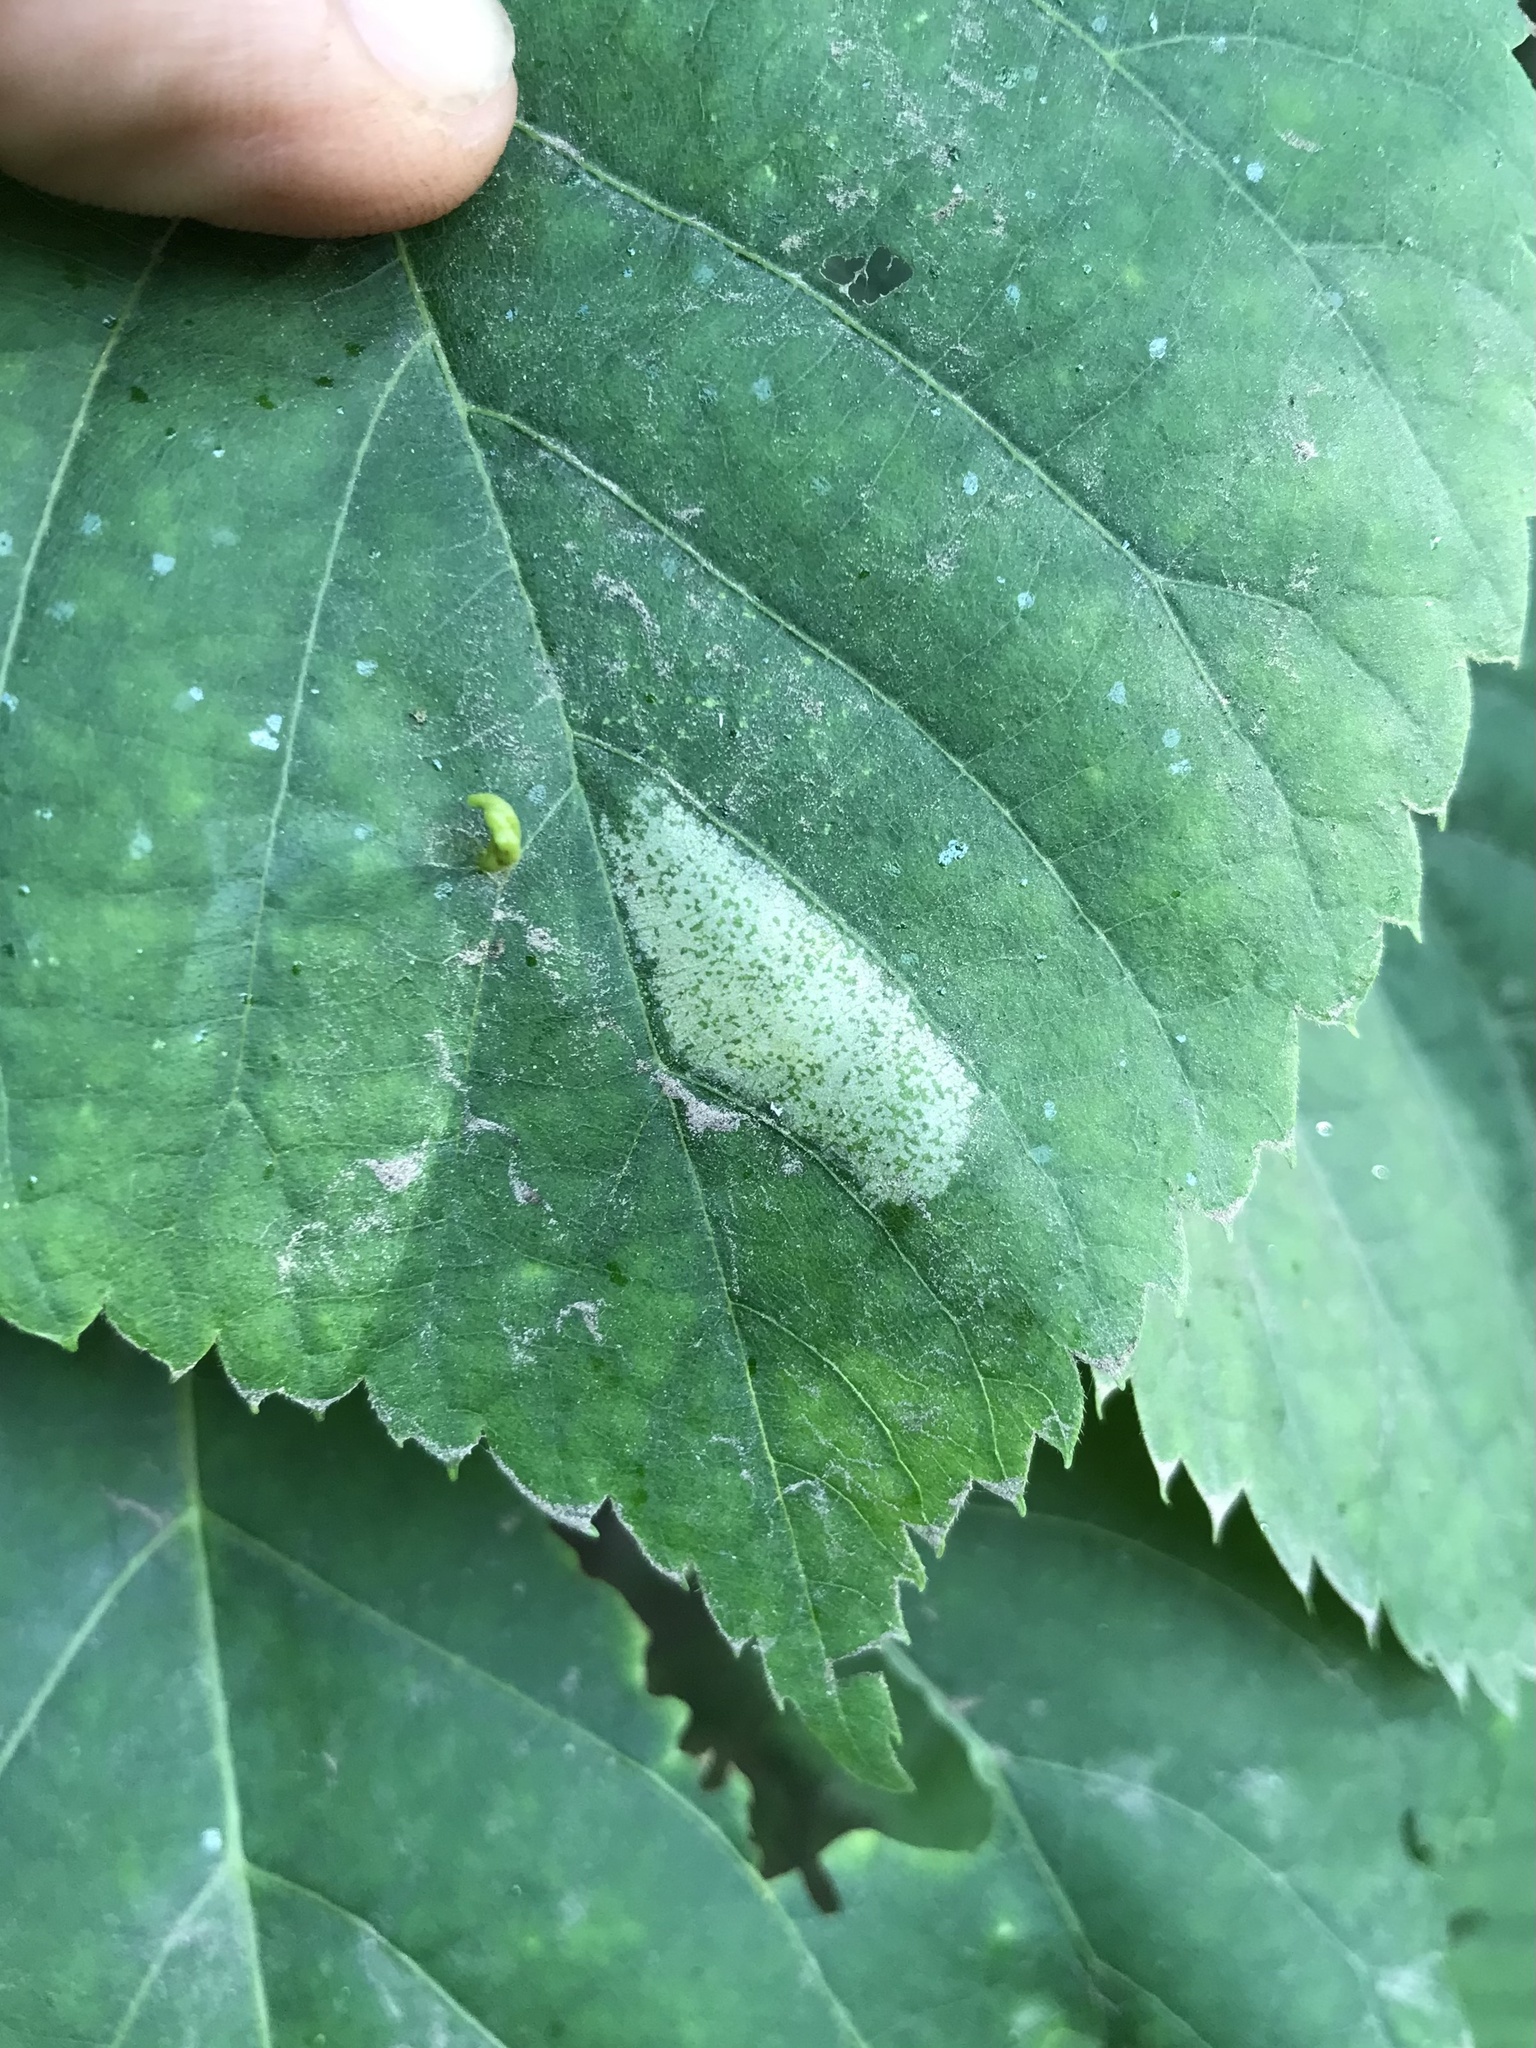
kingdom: Animalia
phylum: Arthropoda
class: Insecta
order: Lepidoptera
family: Gracillariidae
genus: Phyllonorycter
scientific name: Phyllonorycter lucetiella
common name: Basswood miner moth
